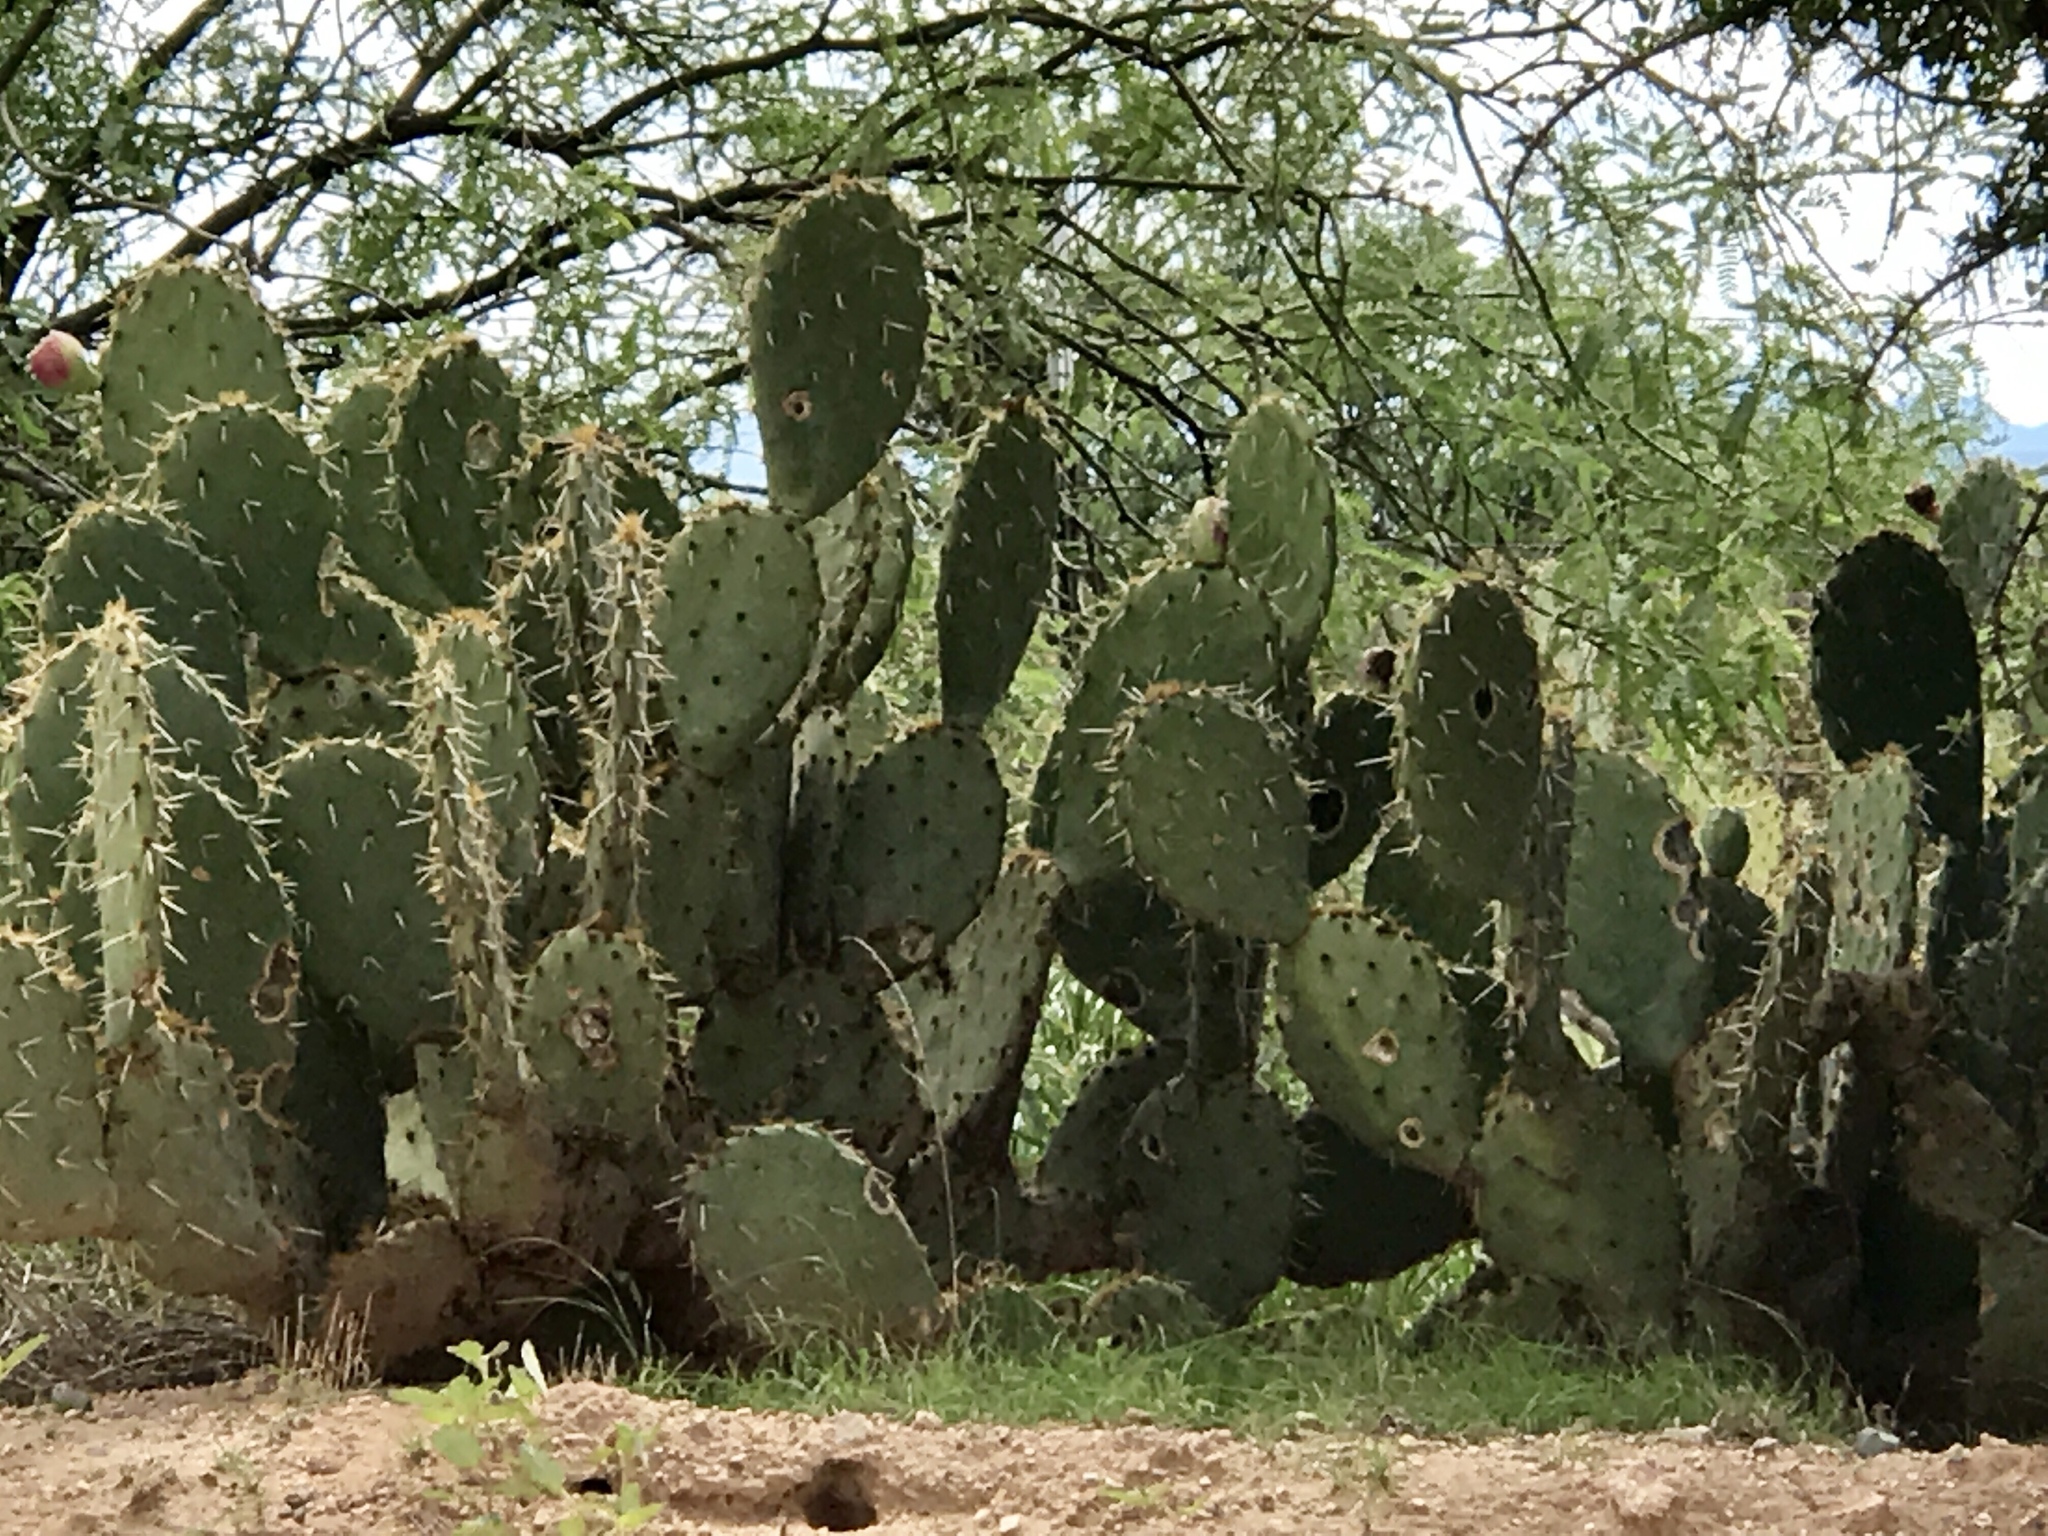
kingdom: Plantae
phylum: Tracheophyta
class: Magnoliopsida
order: Caryophyllales
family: Cactaceae
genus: Opuntia
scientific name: Opuntia engelmannii
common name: Cactus-apple
